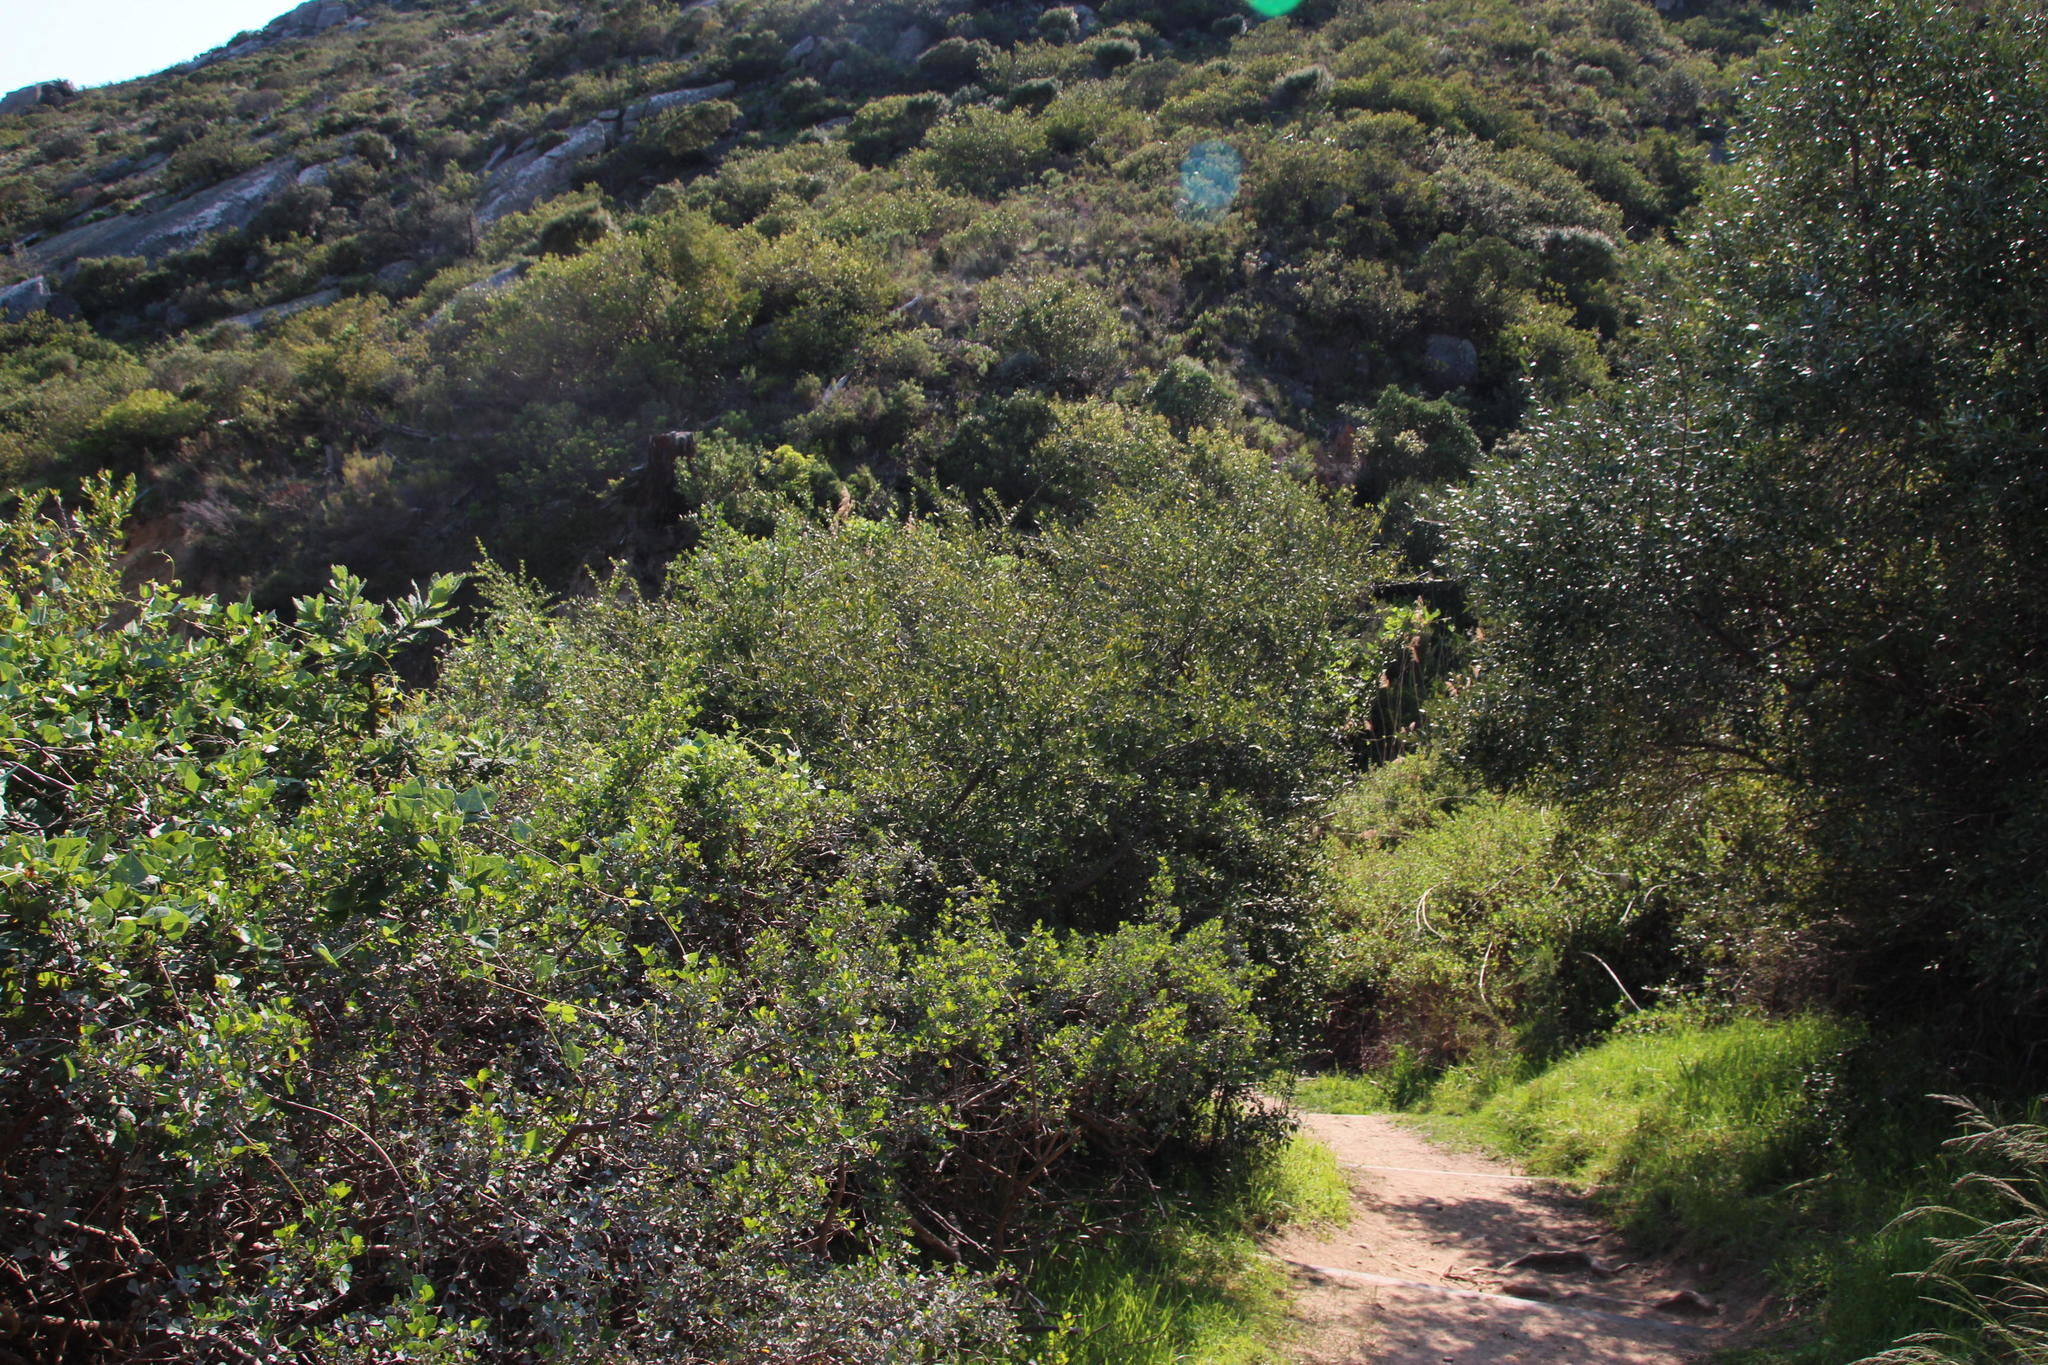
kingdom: Plantae
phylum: Tracheophyta
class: Magnoliopsida
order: Celastrales
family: Celastraceae
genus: Gymnosporia
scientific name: Gymnosporia buxifolia
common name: Common spike-thorn
